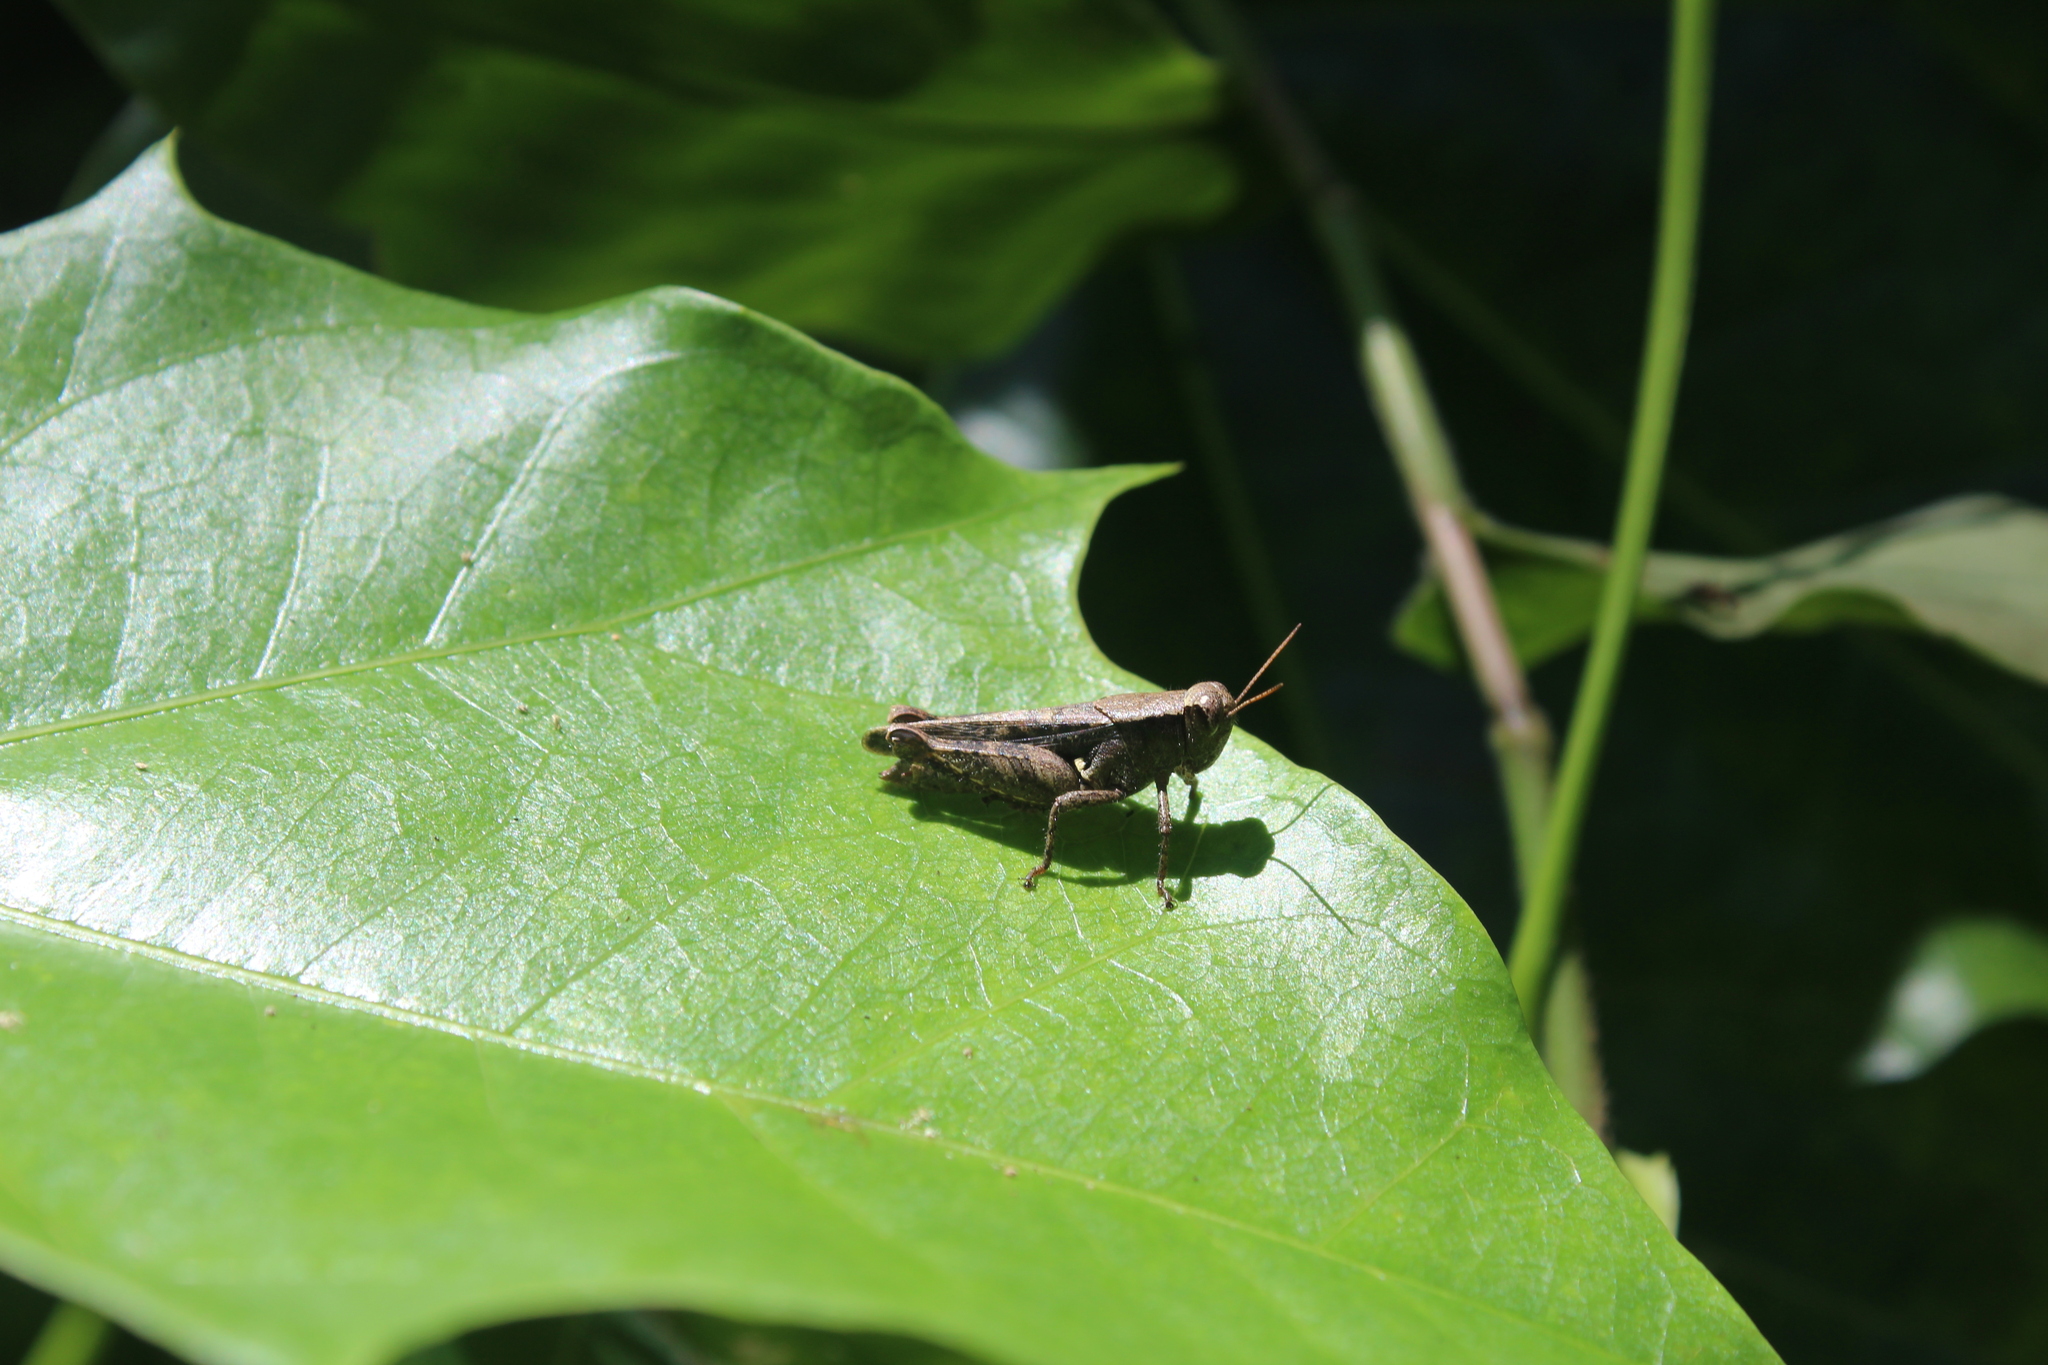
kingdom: Animalia
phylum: Arthropoda
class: Insecta
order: Orthoptera
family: Acrididae
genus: Aidemona
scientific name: Aidemona azteca
